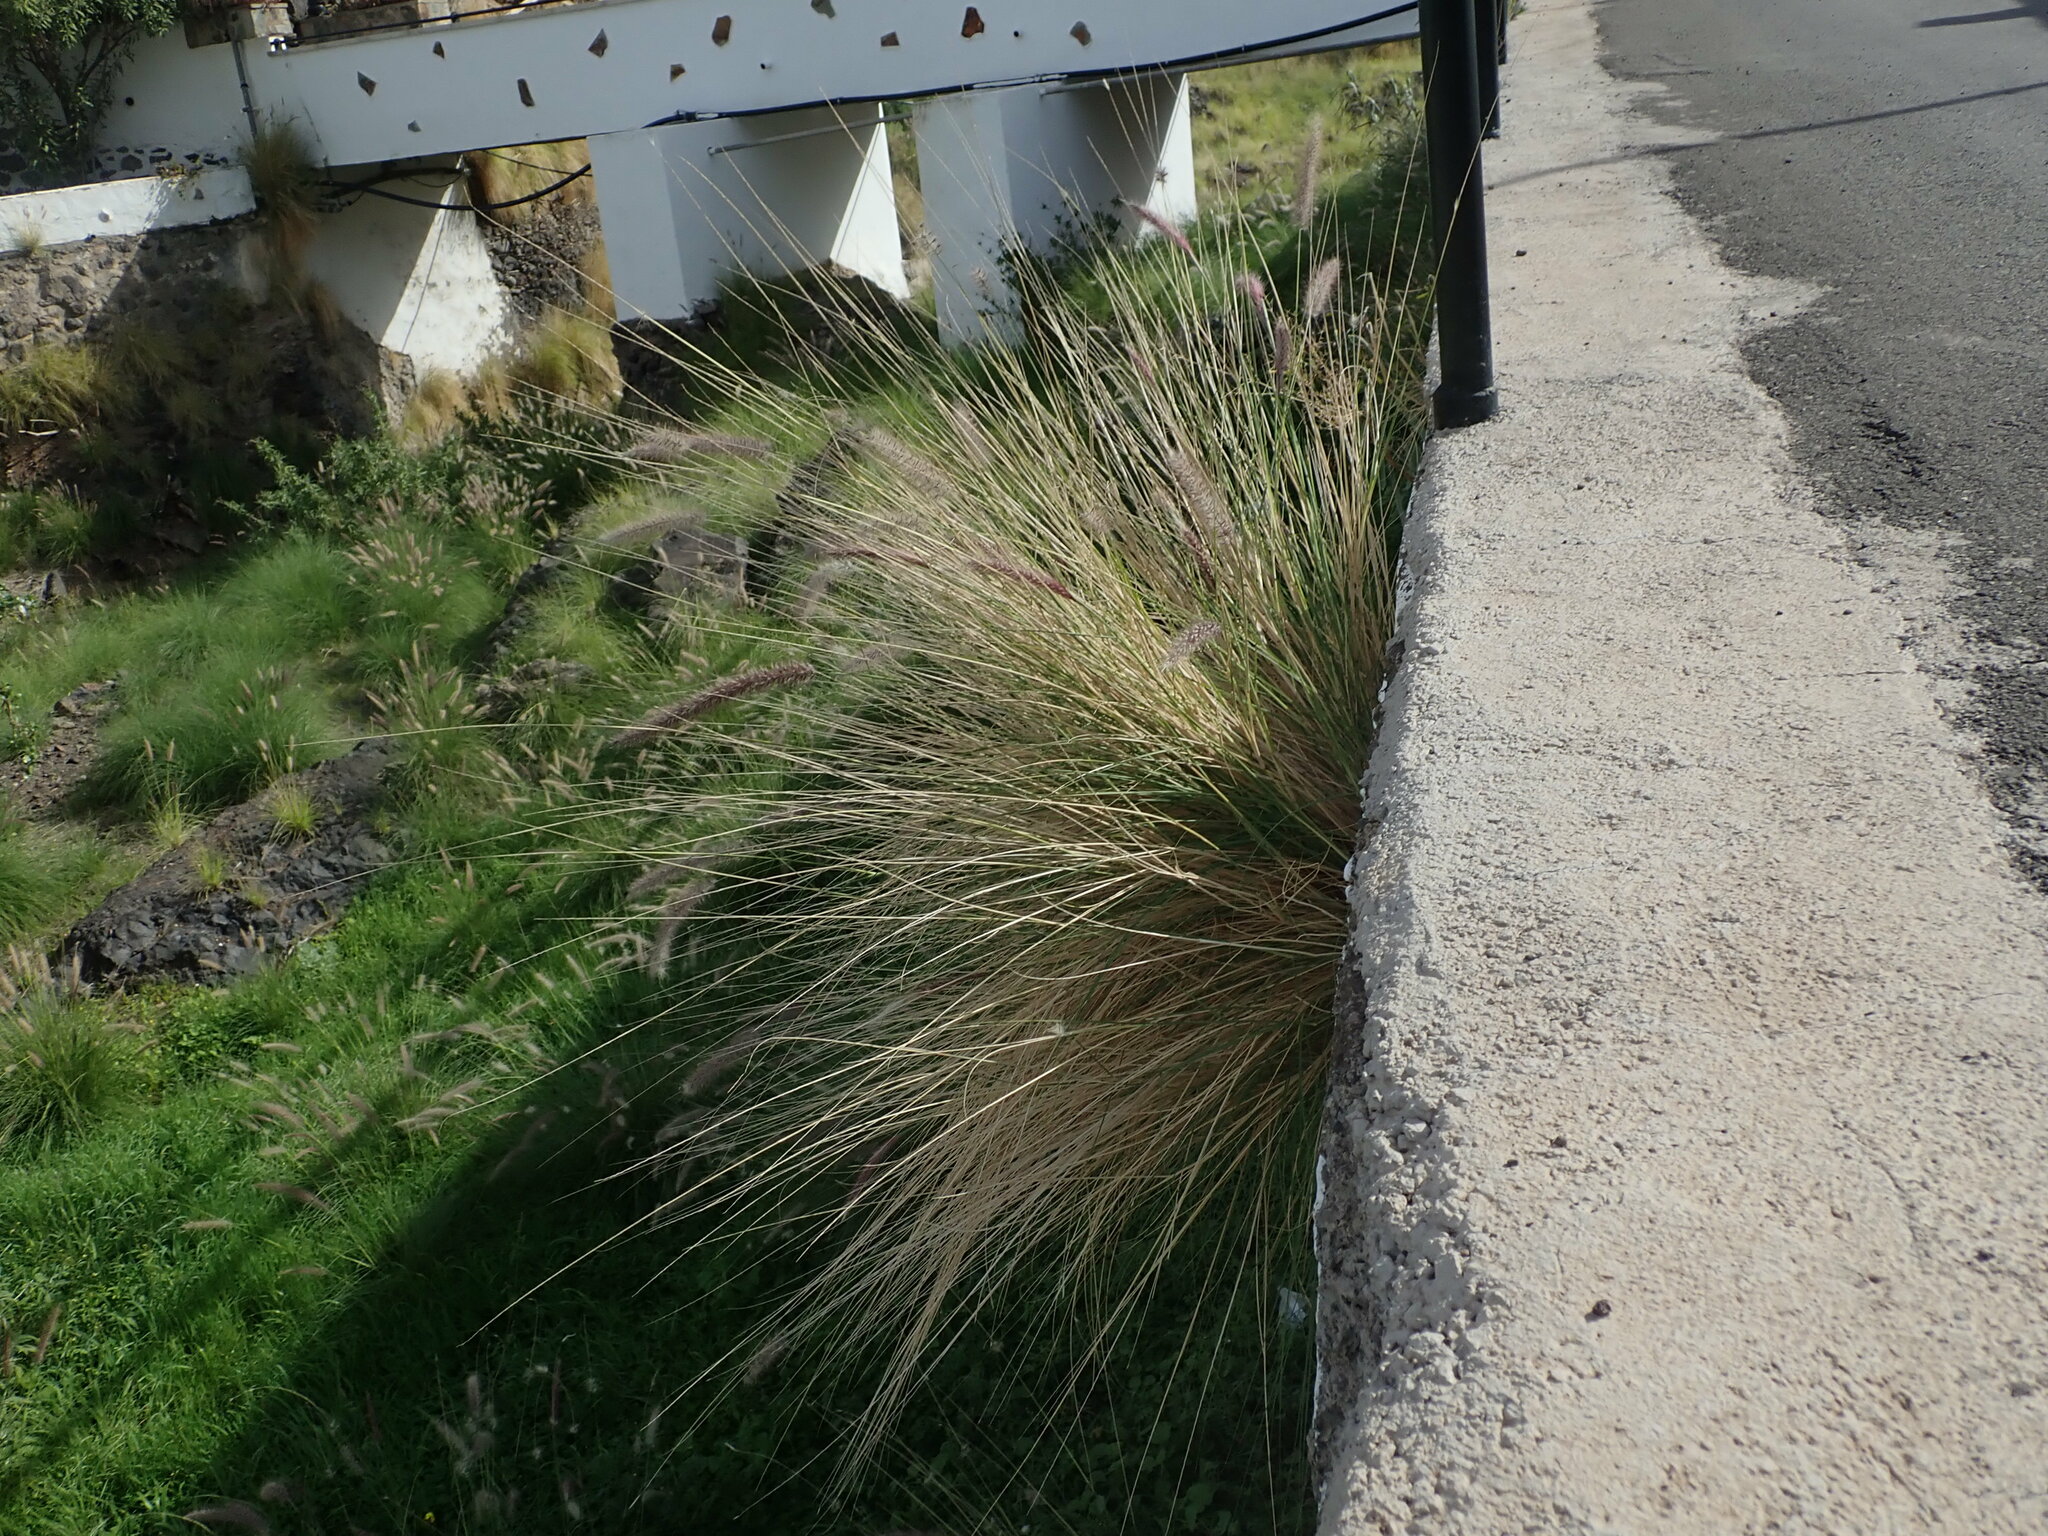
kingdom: Plantae
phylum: Tracheophyta
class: Liliopsida
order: Poales
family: Poaceae
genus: Cenchrus
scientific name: Cenchrus setaceus
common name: Crimson fountaingrass
